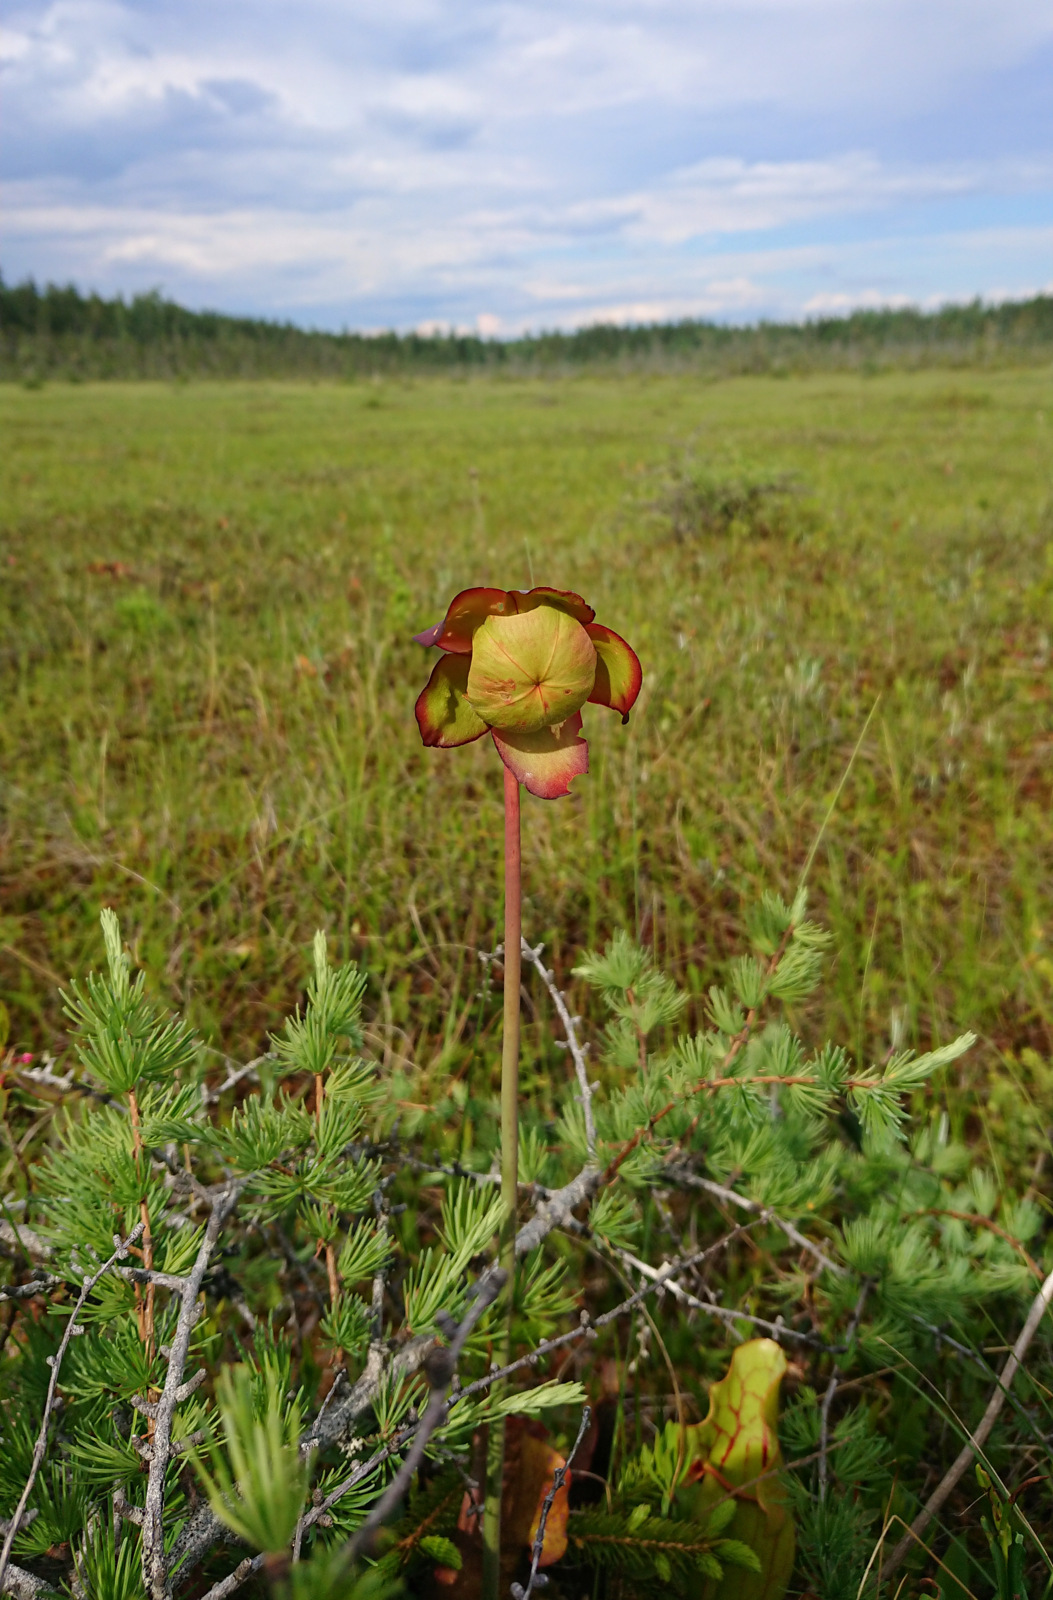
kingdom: Plantae
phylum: Tracheophyta
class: Magnoliopsida
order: Ericales
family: Sarraceniaceae
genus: Sarracenia
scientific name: Sarracenia purpurea
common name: Pitcherplant
